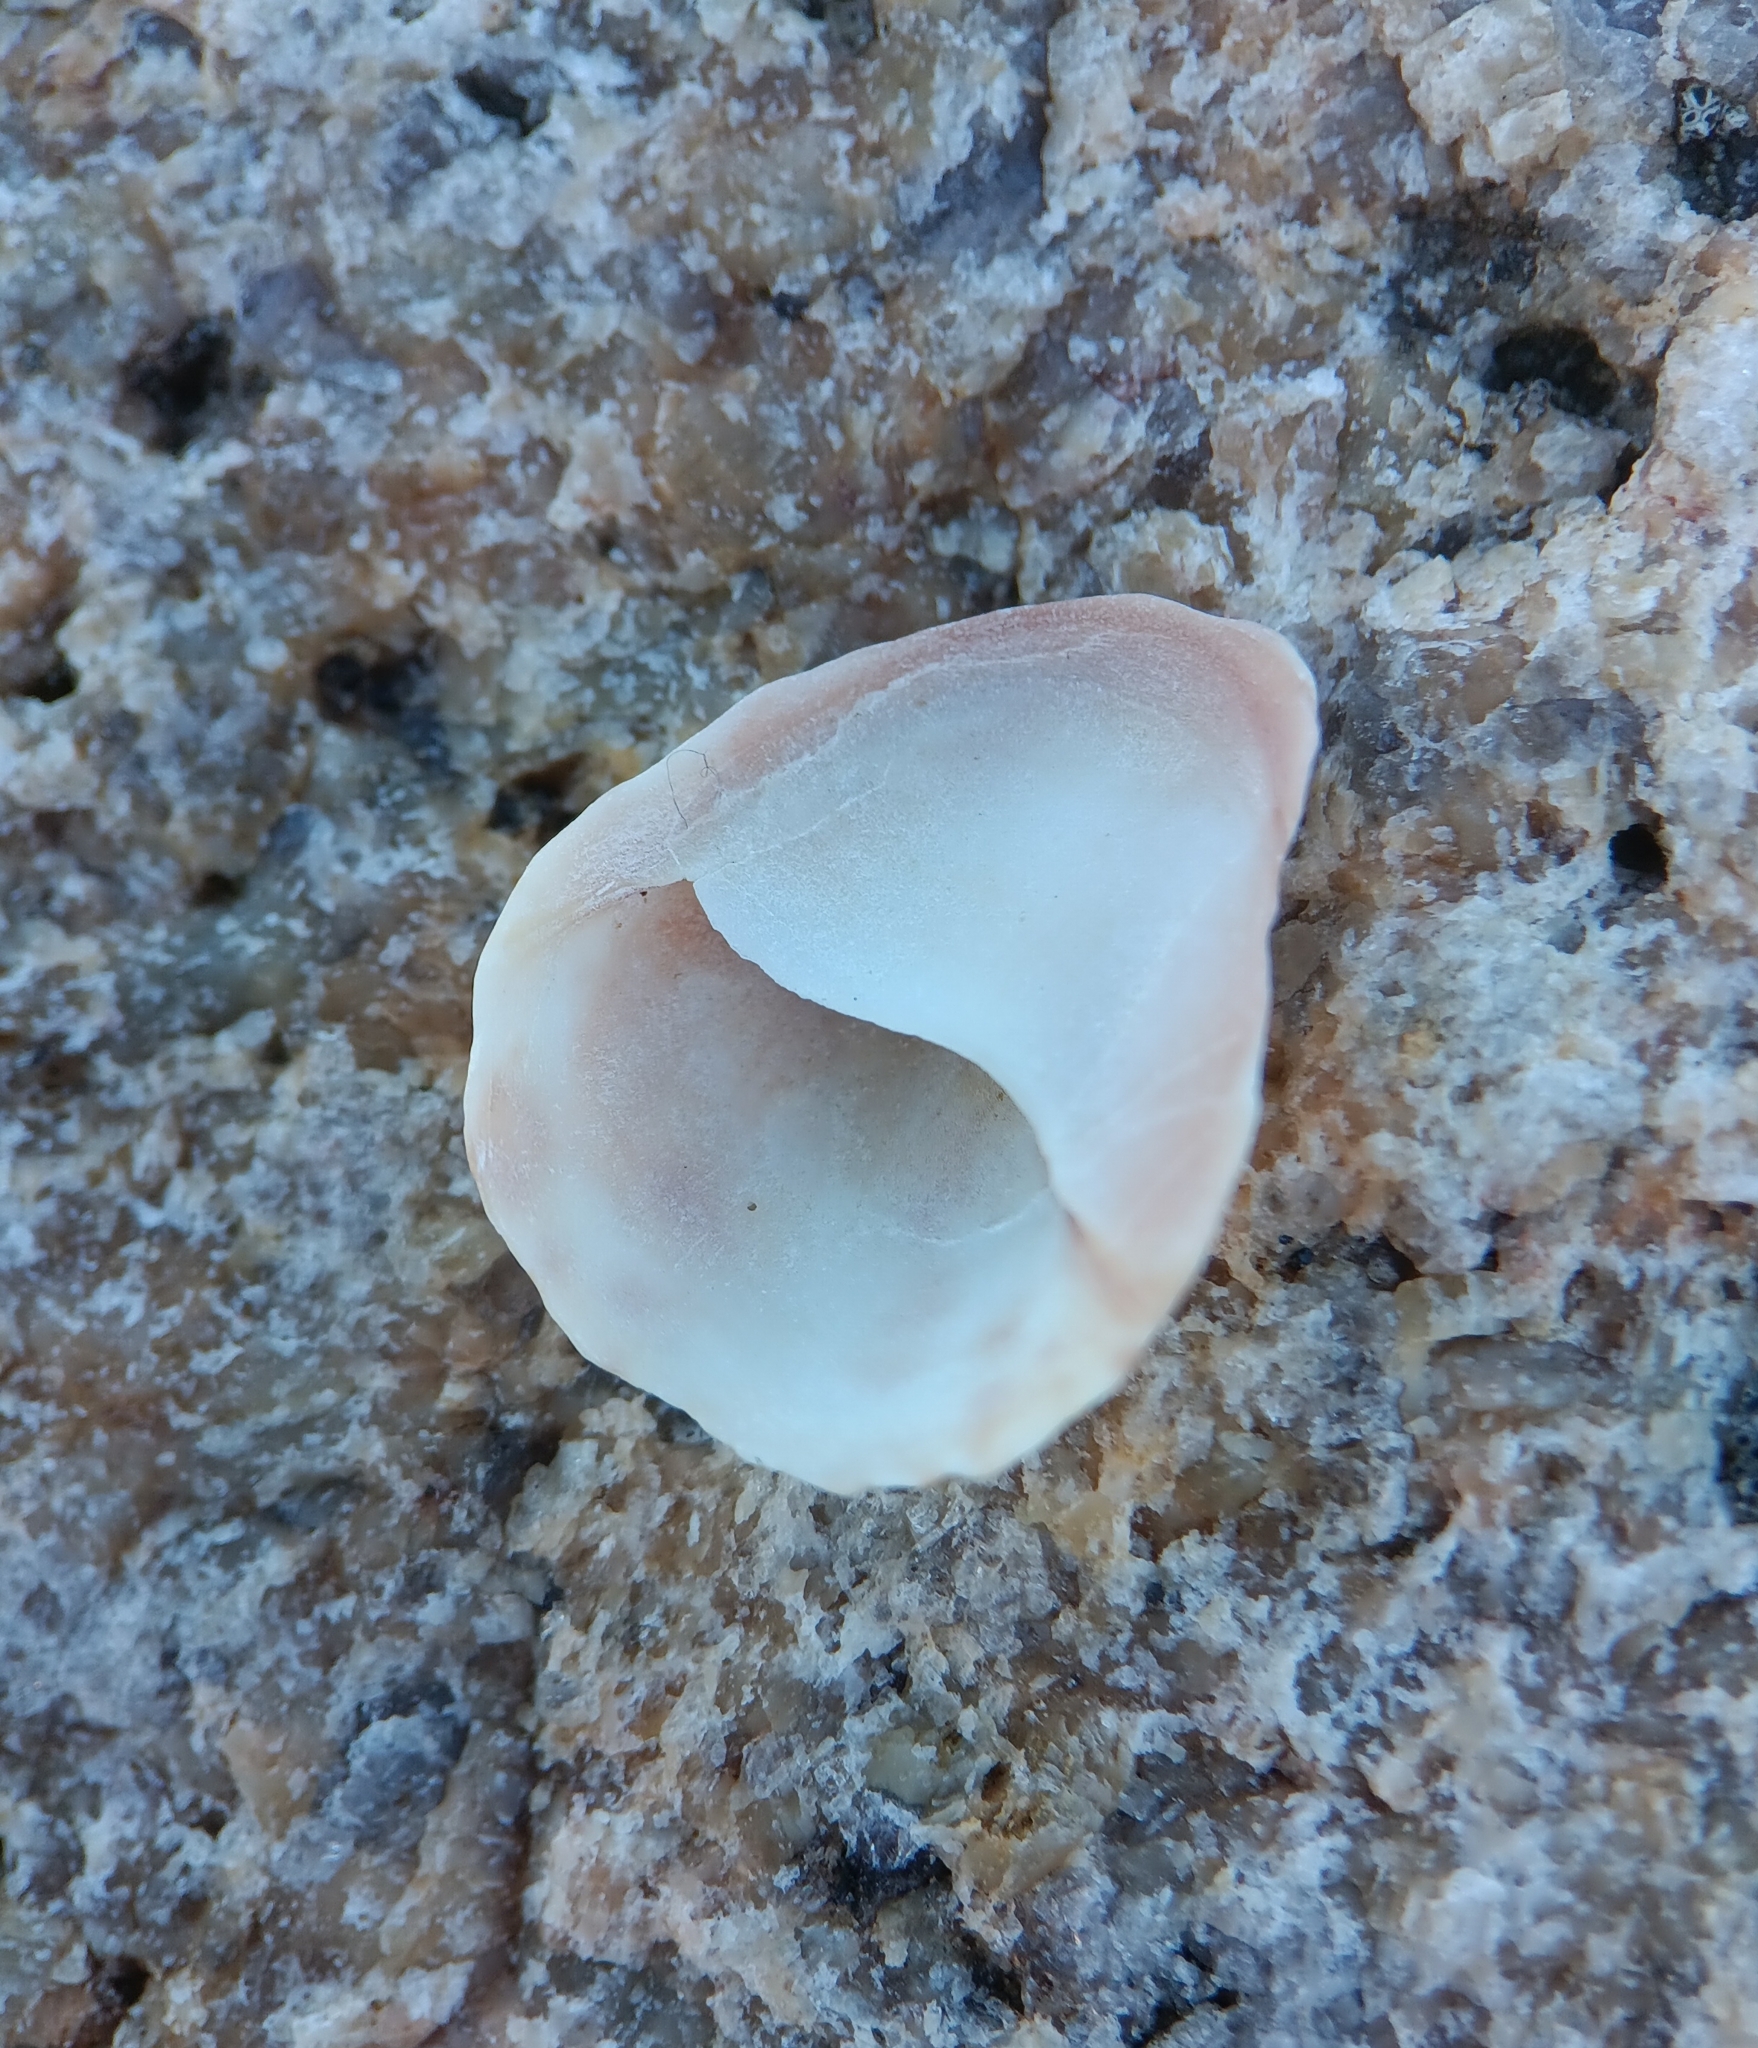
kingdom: Animalia
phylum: Mollusca
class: Gastropoda
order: Littorinimorpha
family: Calyptraeidae
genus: Crepidula
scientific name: Crepidula fornicata
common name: Slipper limpet
